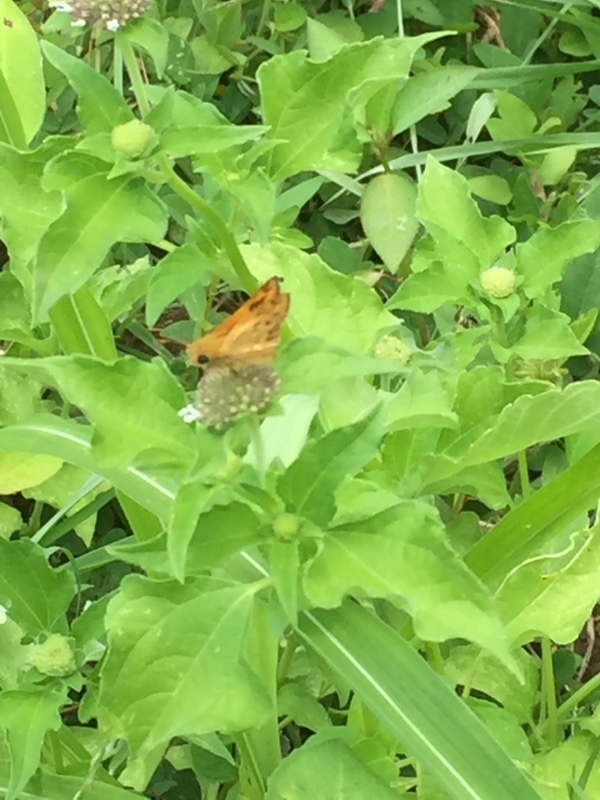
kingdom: Animalia
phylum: Arthropoda
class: Insecta
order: Lepidoptera
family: Hesperiidae
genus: Hylephila
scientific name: Hylephila phyleus
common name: Fiery skipper
